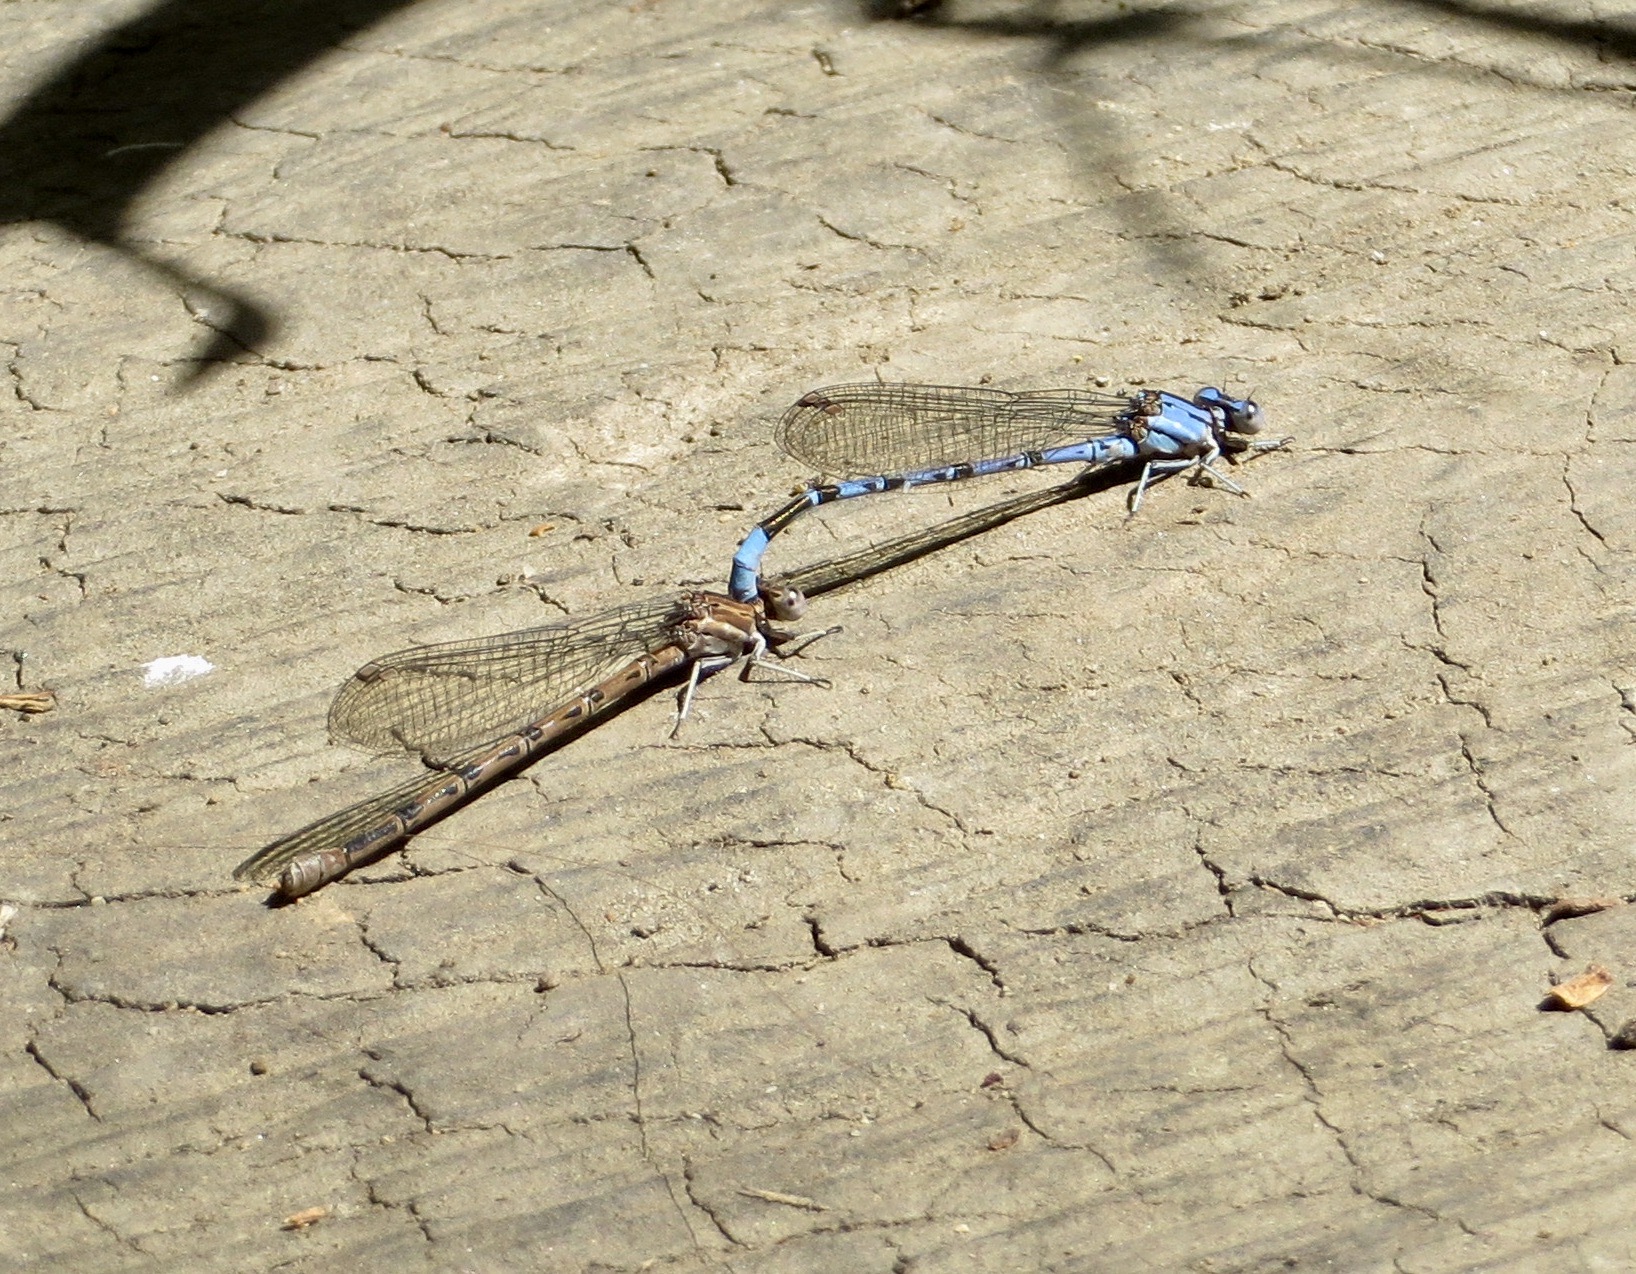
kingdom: Animalia
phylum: Arthropoda
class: Insecta
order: Odonata
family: Coenagrionidae
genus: Argia
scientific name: Argia vivida
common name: Vivid dancer
